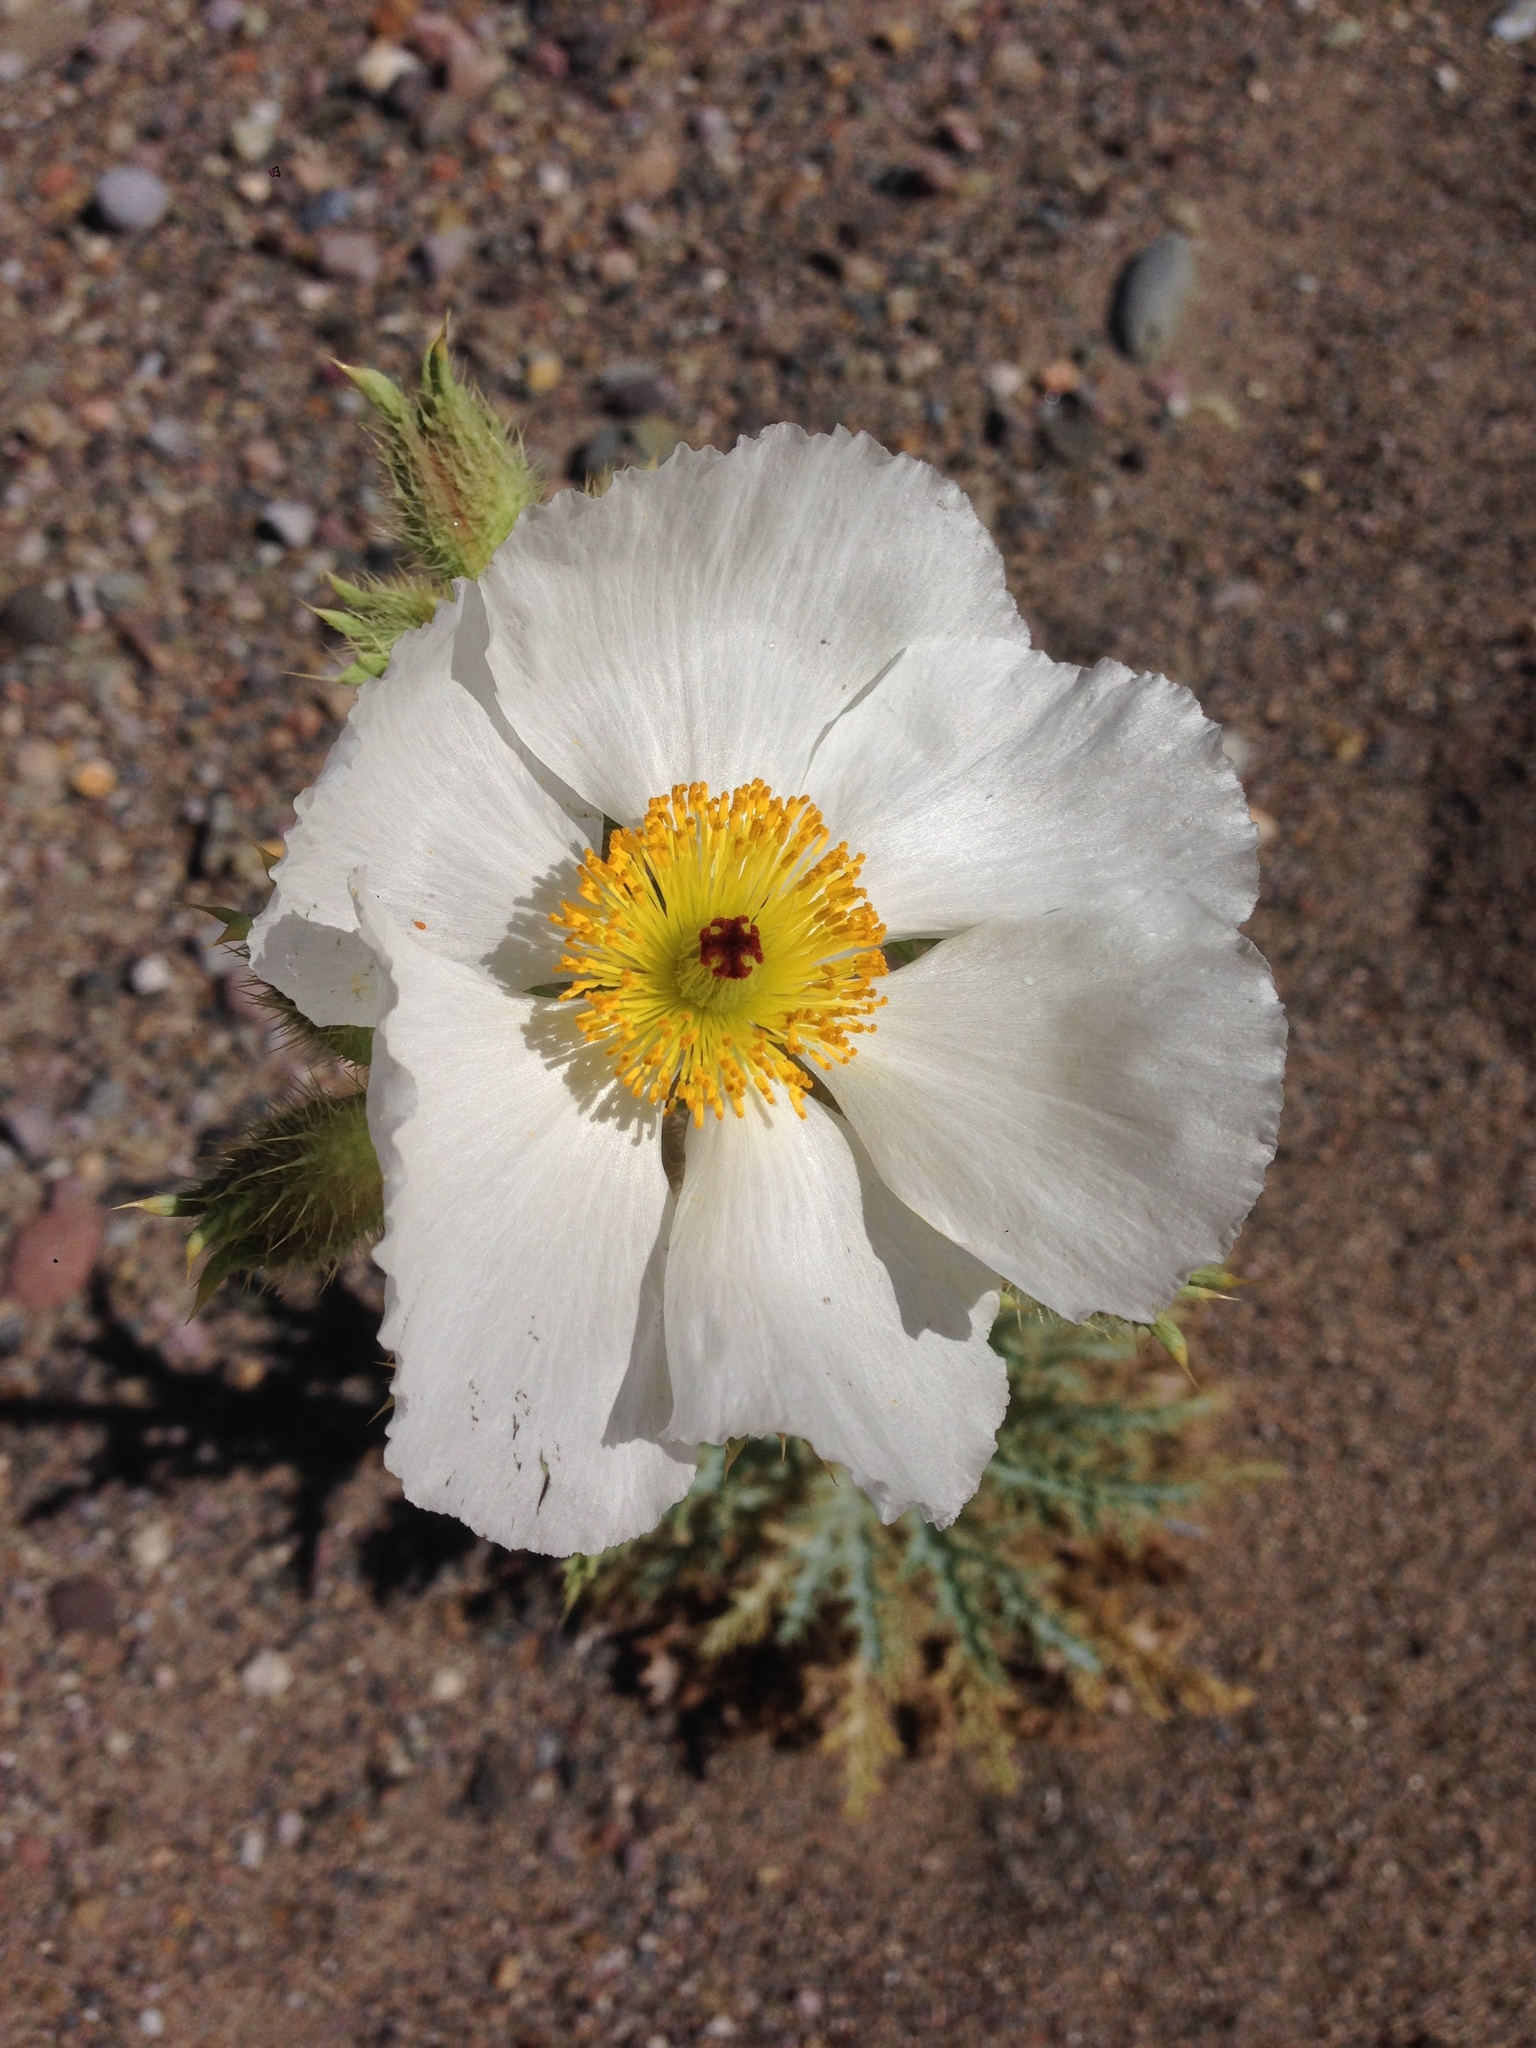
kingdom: Plantae
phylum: Tracheophyta
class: Magnoliopsida
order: Ranunculales
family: Papaveraceae
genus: Argemone
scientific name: Argemone munita
